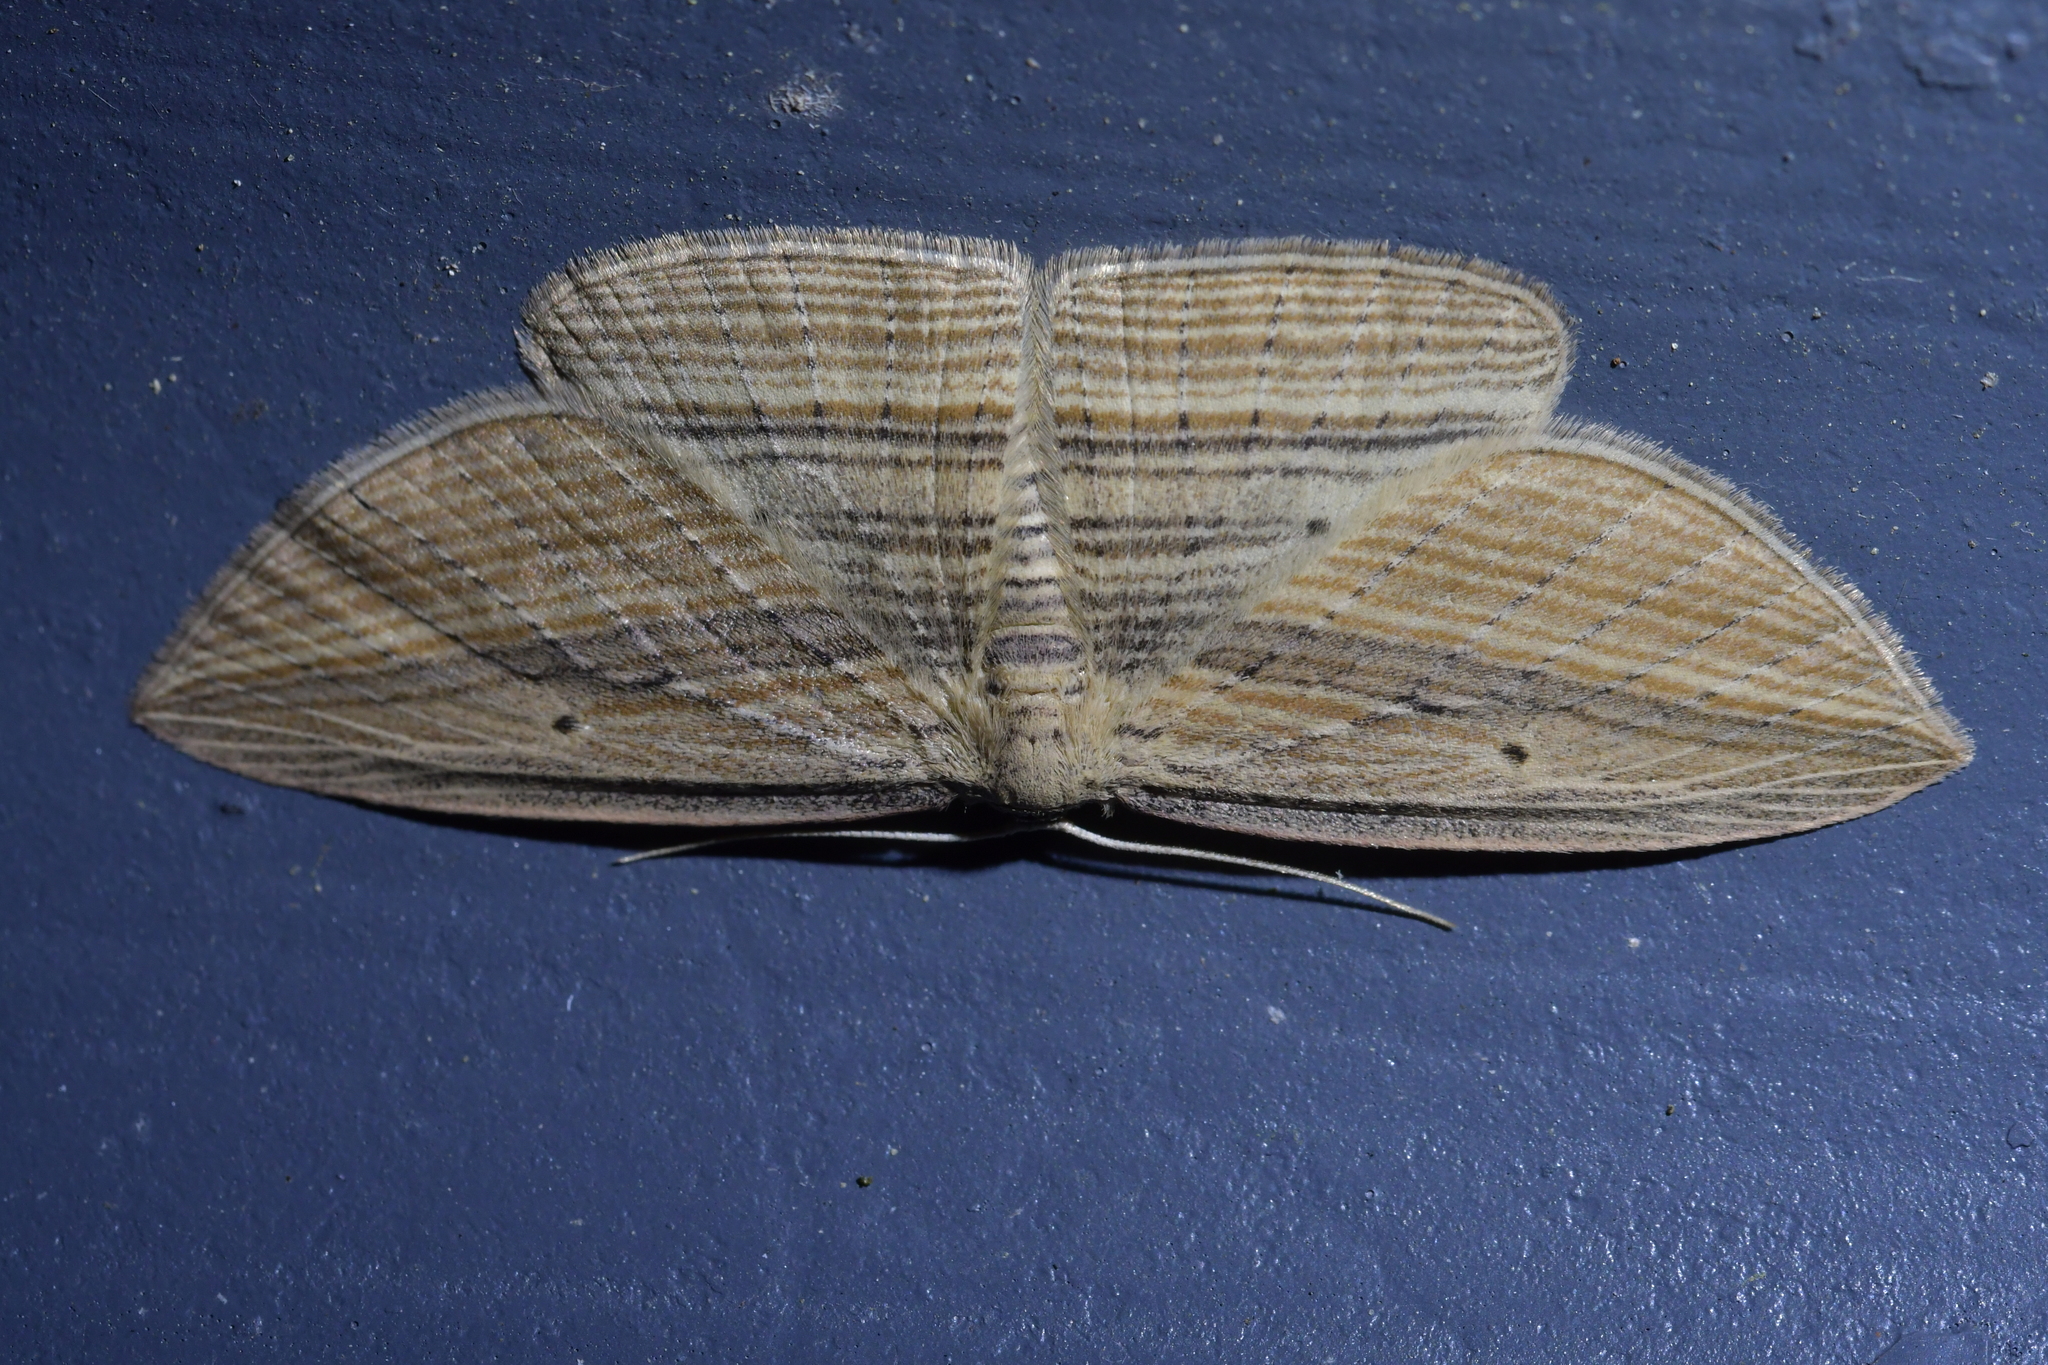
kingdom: Animalia
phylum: Arthropoda
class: Insecta
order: Lepidoptera
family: Geometridae
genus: Epiphryne
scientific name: Epiphryne verriculata
